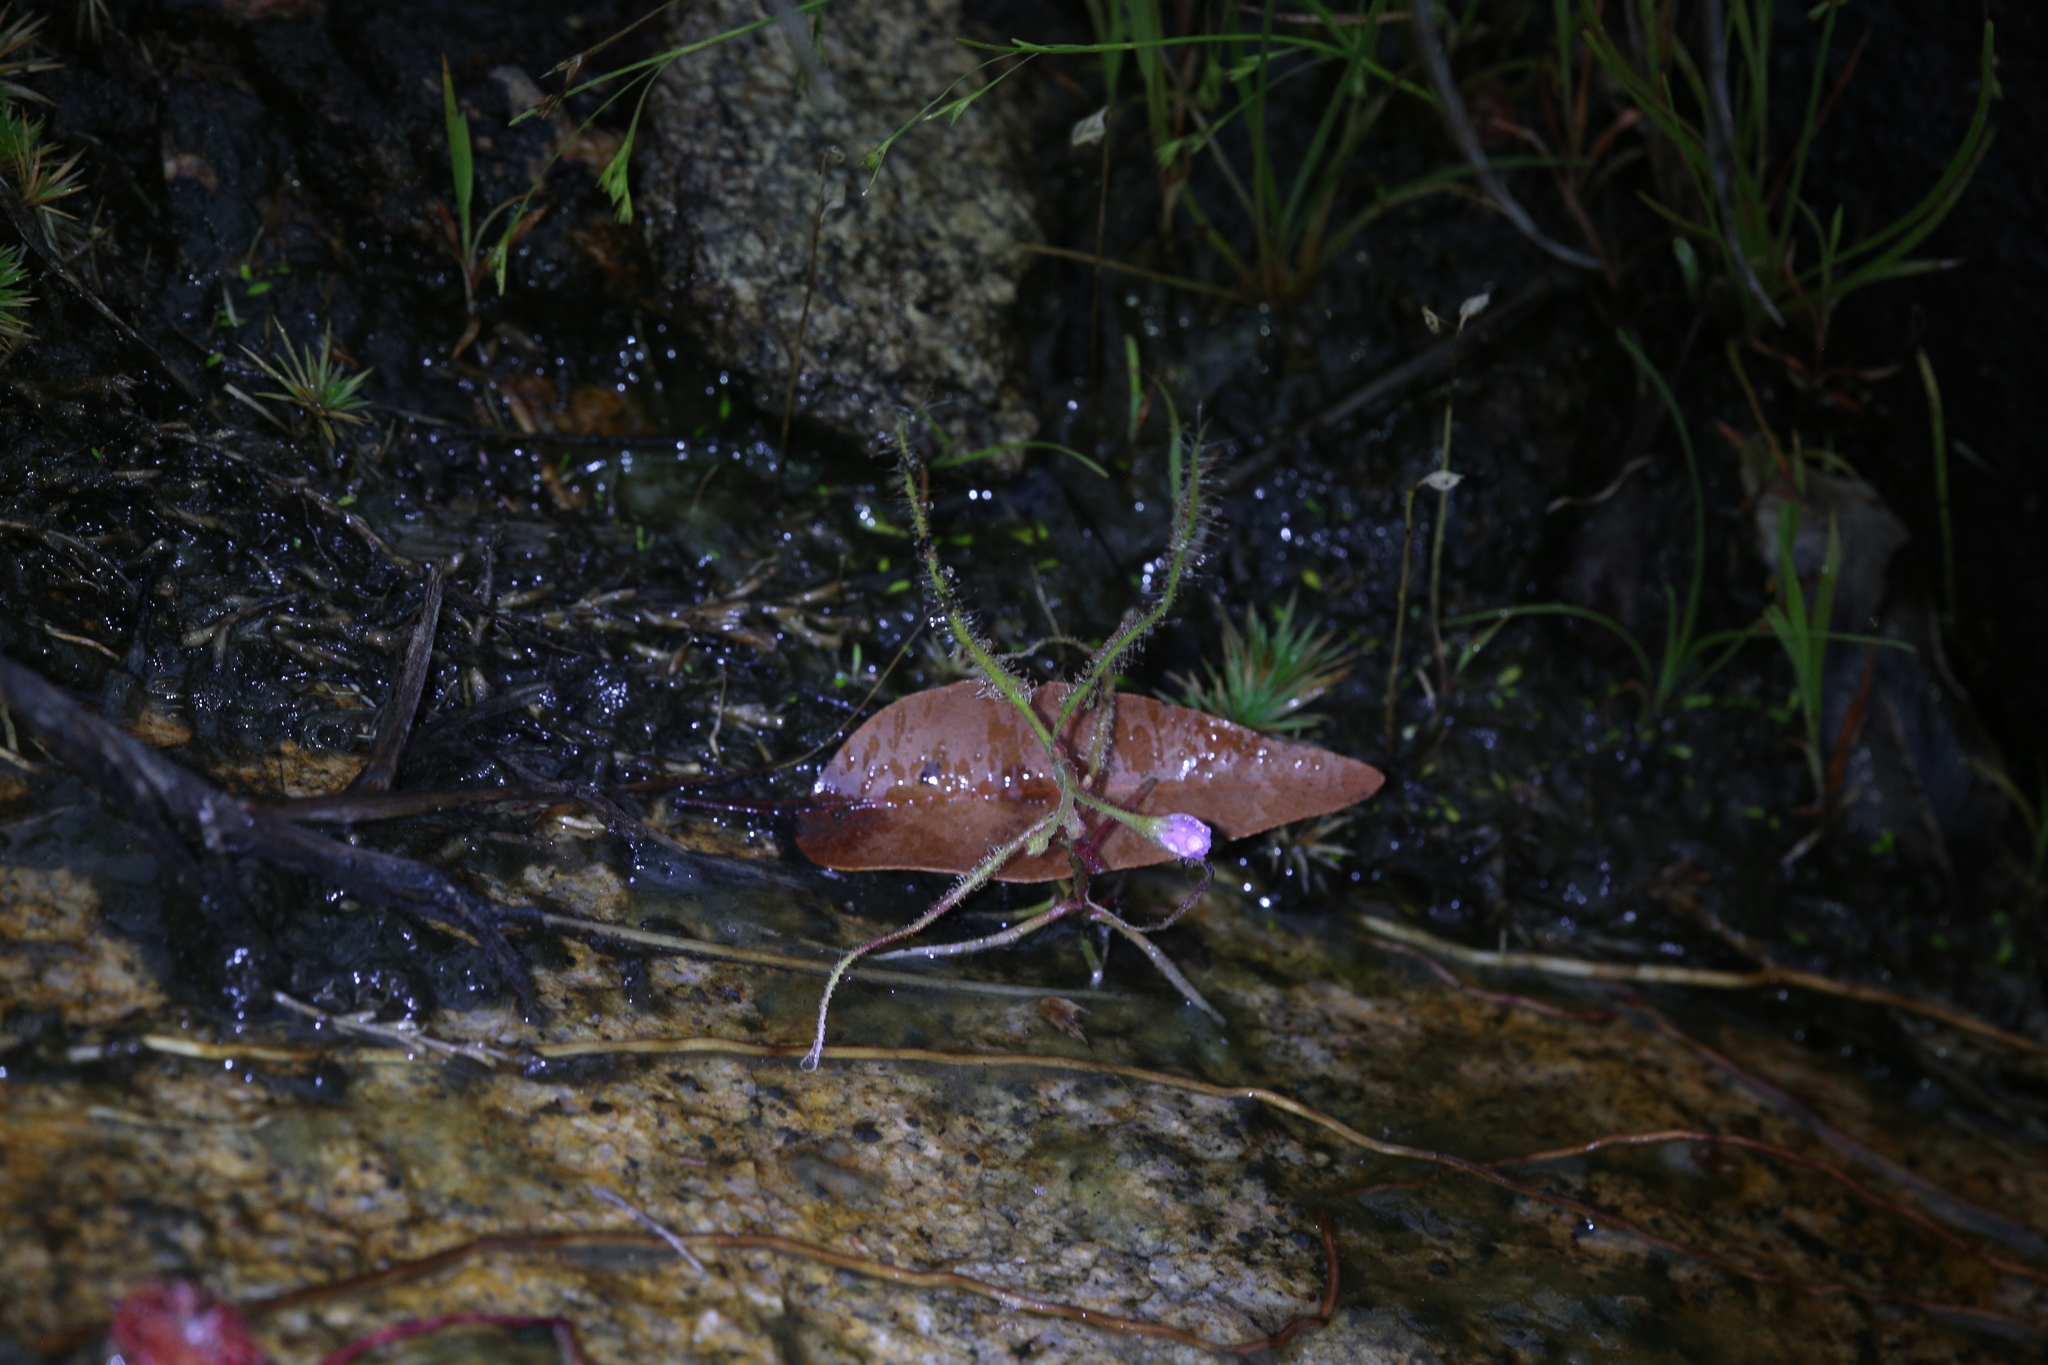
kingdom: Plantae
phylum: Tracheophyta
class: Magnoliopsida
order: Caryophyllales
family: Droseraceae
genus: Drosera
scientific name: Drosera indica
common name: Indian sundew
